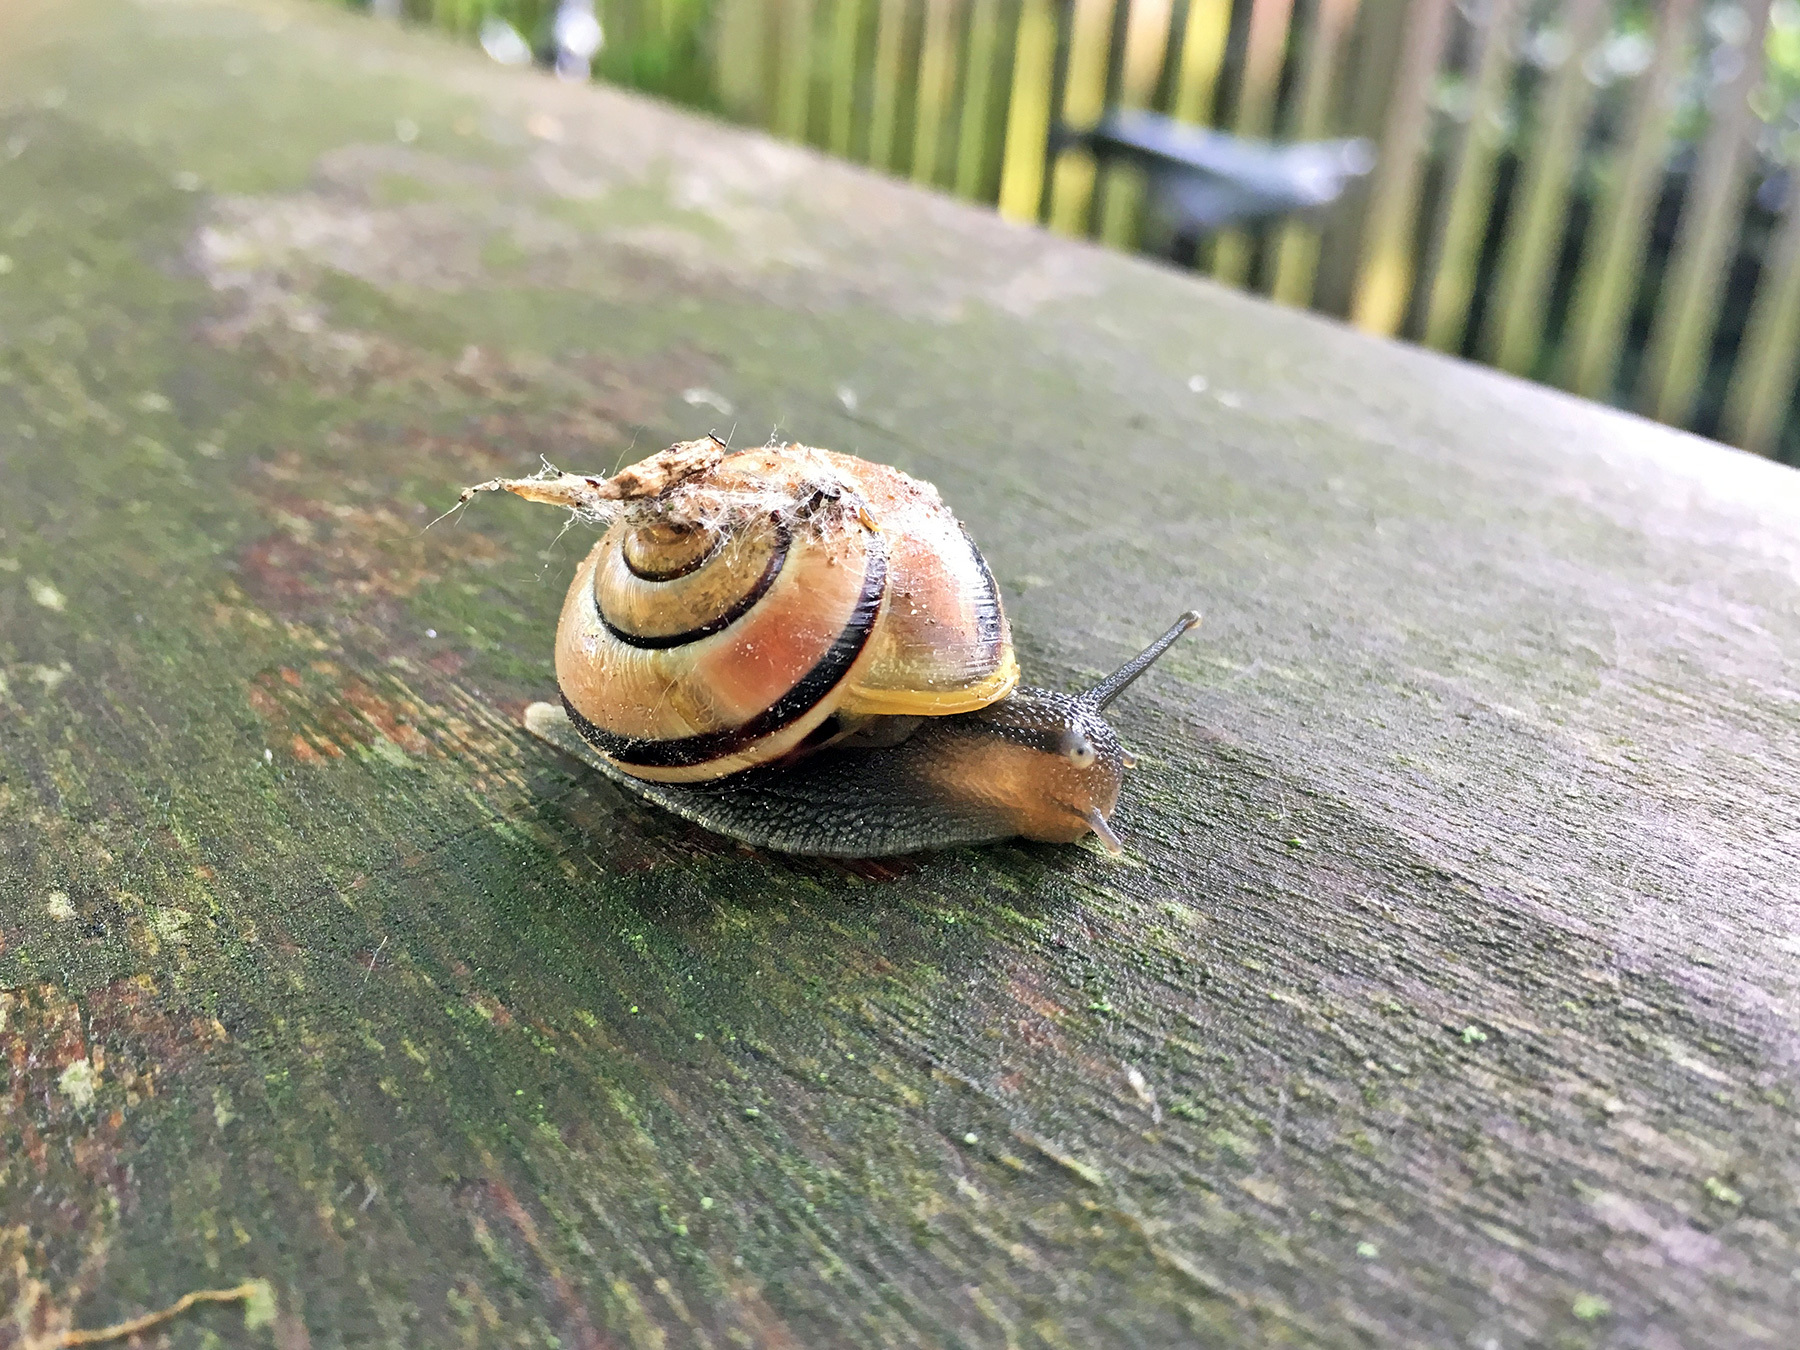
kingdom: Animalia
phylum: Mollusca
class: Gastropoda
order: Stylommatophora
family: Helicidae
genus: Cepaea
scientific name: Cepaea hortensis
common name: White-lip gardensnail
